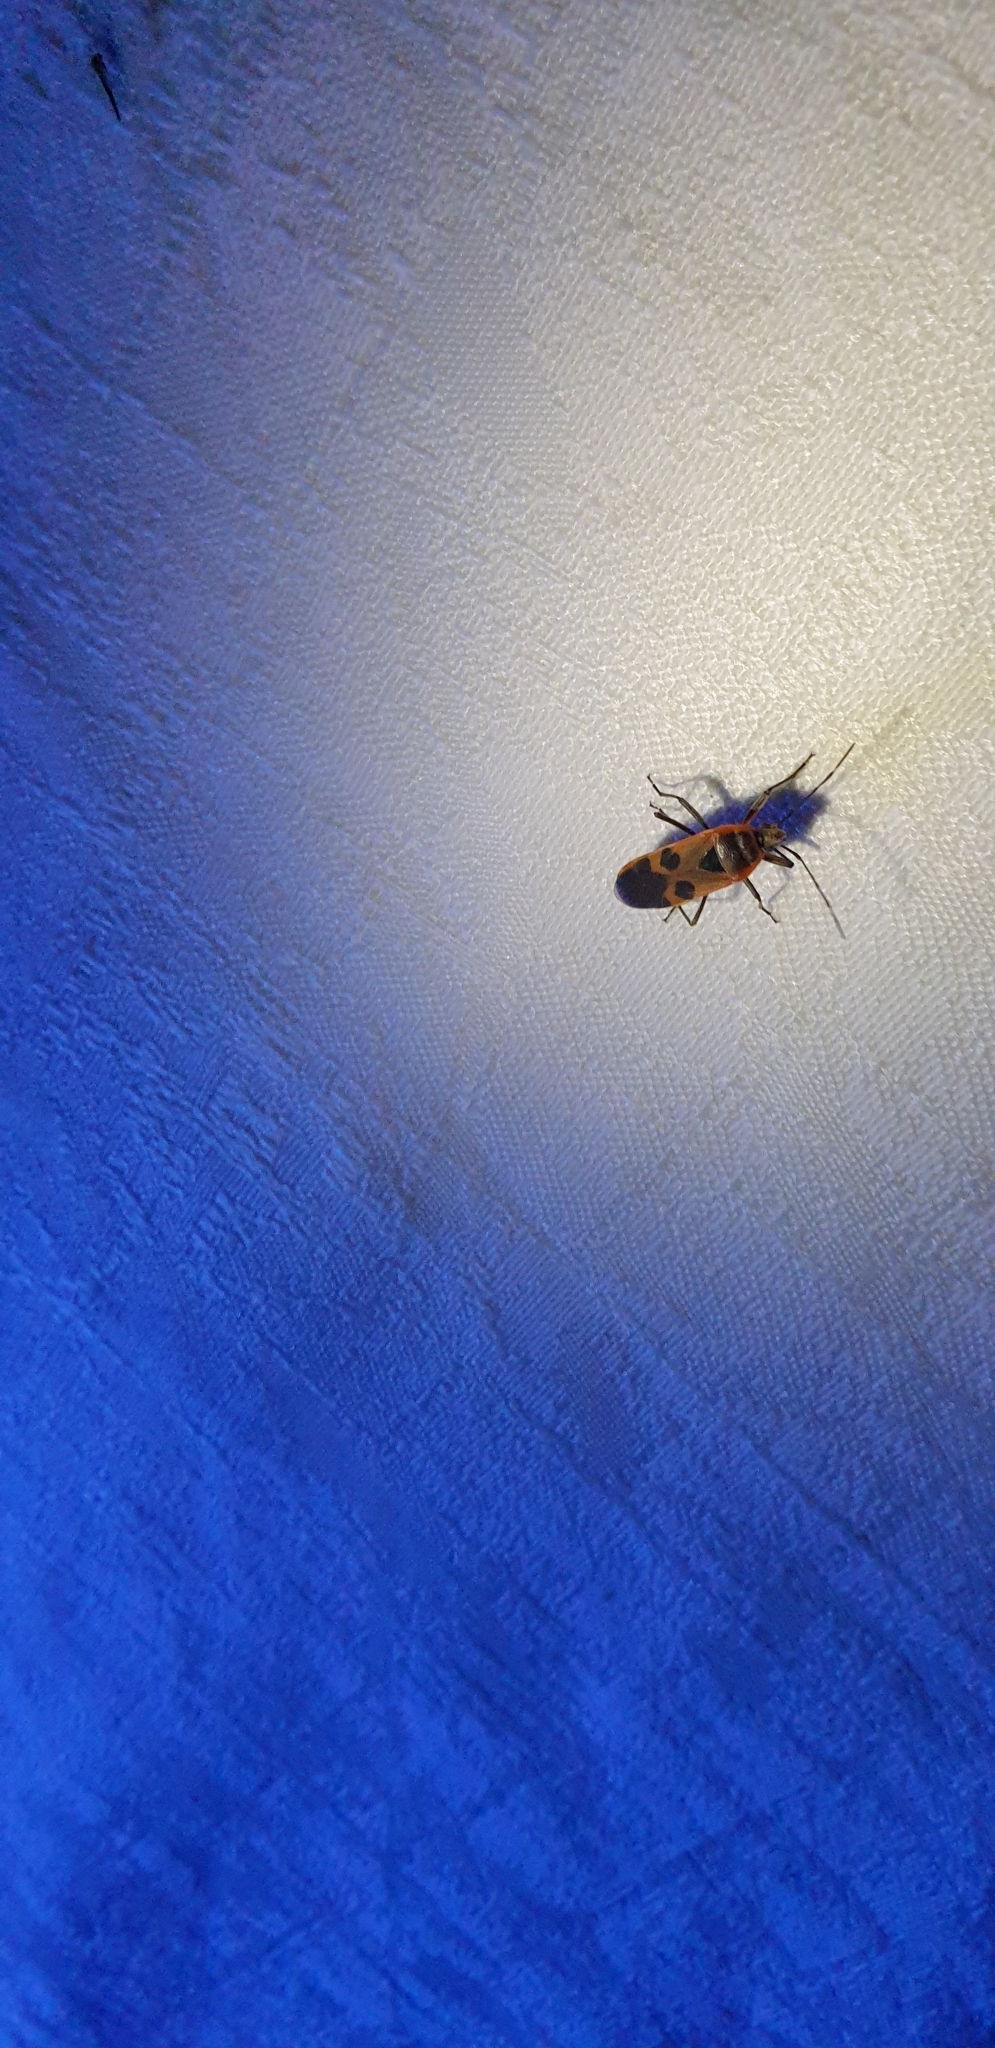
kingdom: Animalia
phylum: Arthropoda
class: Insecta
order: Hemiptera
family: Largidae
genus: Physopelta
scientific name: Physopelta gutta
